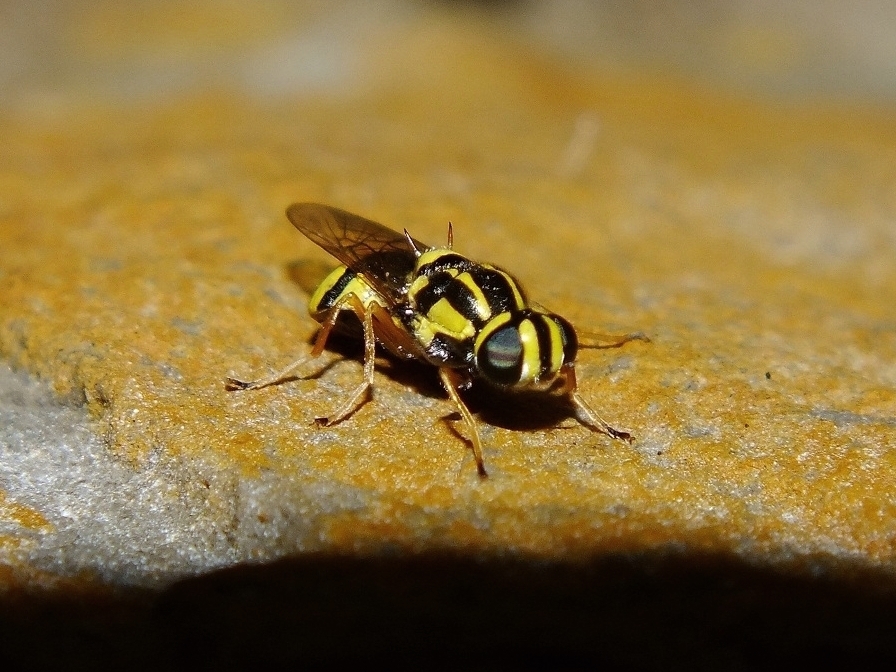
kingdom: Animalia
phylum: Arthropoda
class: Insecta
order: Diptera
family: Stratiomyidae
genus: Oxycera
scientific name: Oxycera fallenii
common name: Irish major
